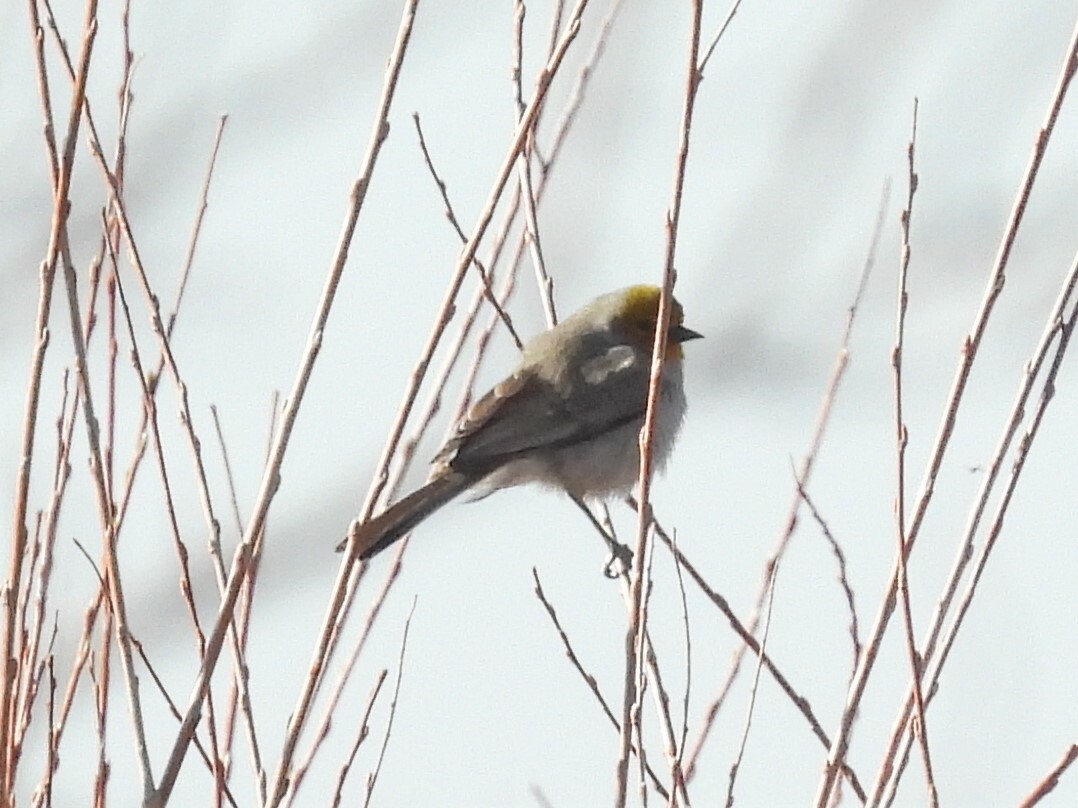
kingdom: Animalia
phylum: Chordata
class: Aves
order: Passeriformes
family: Remizidae
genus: Auriparus
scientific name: Auriparus flaviceps
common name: Verdin
